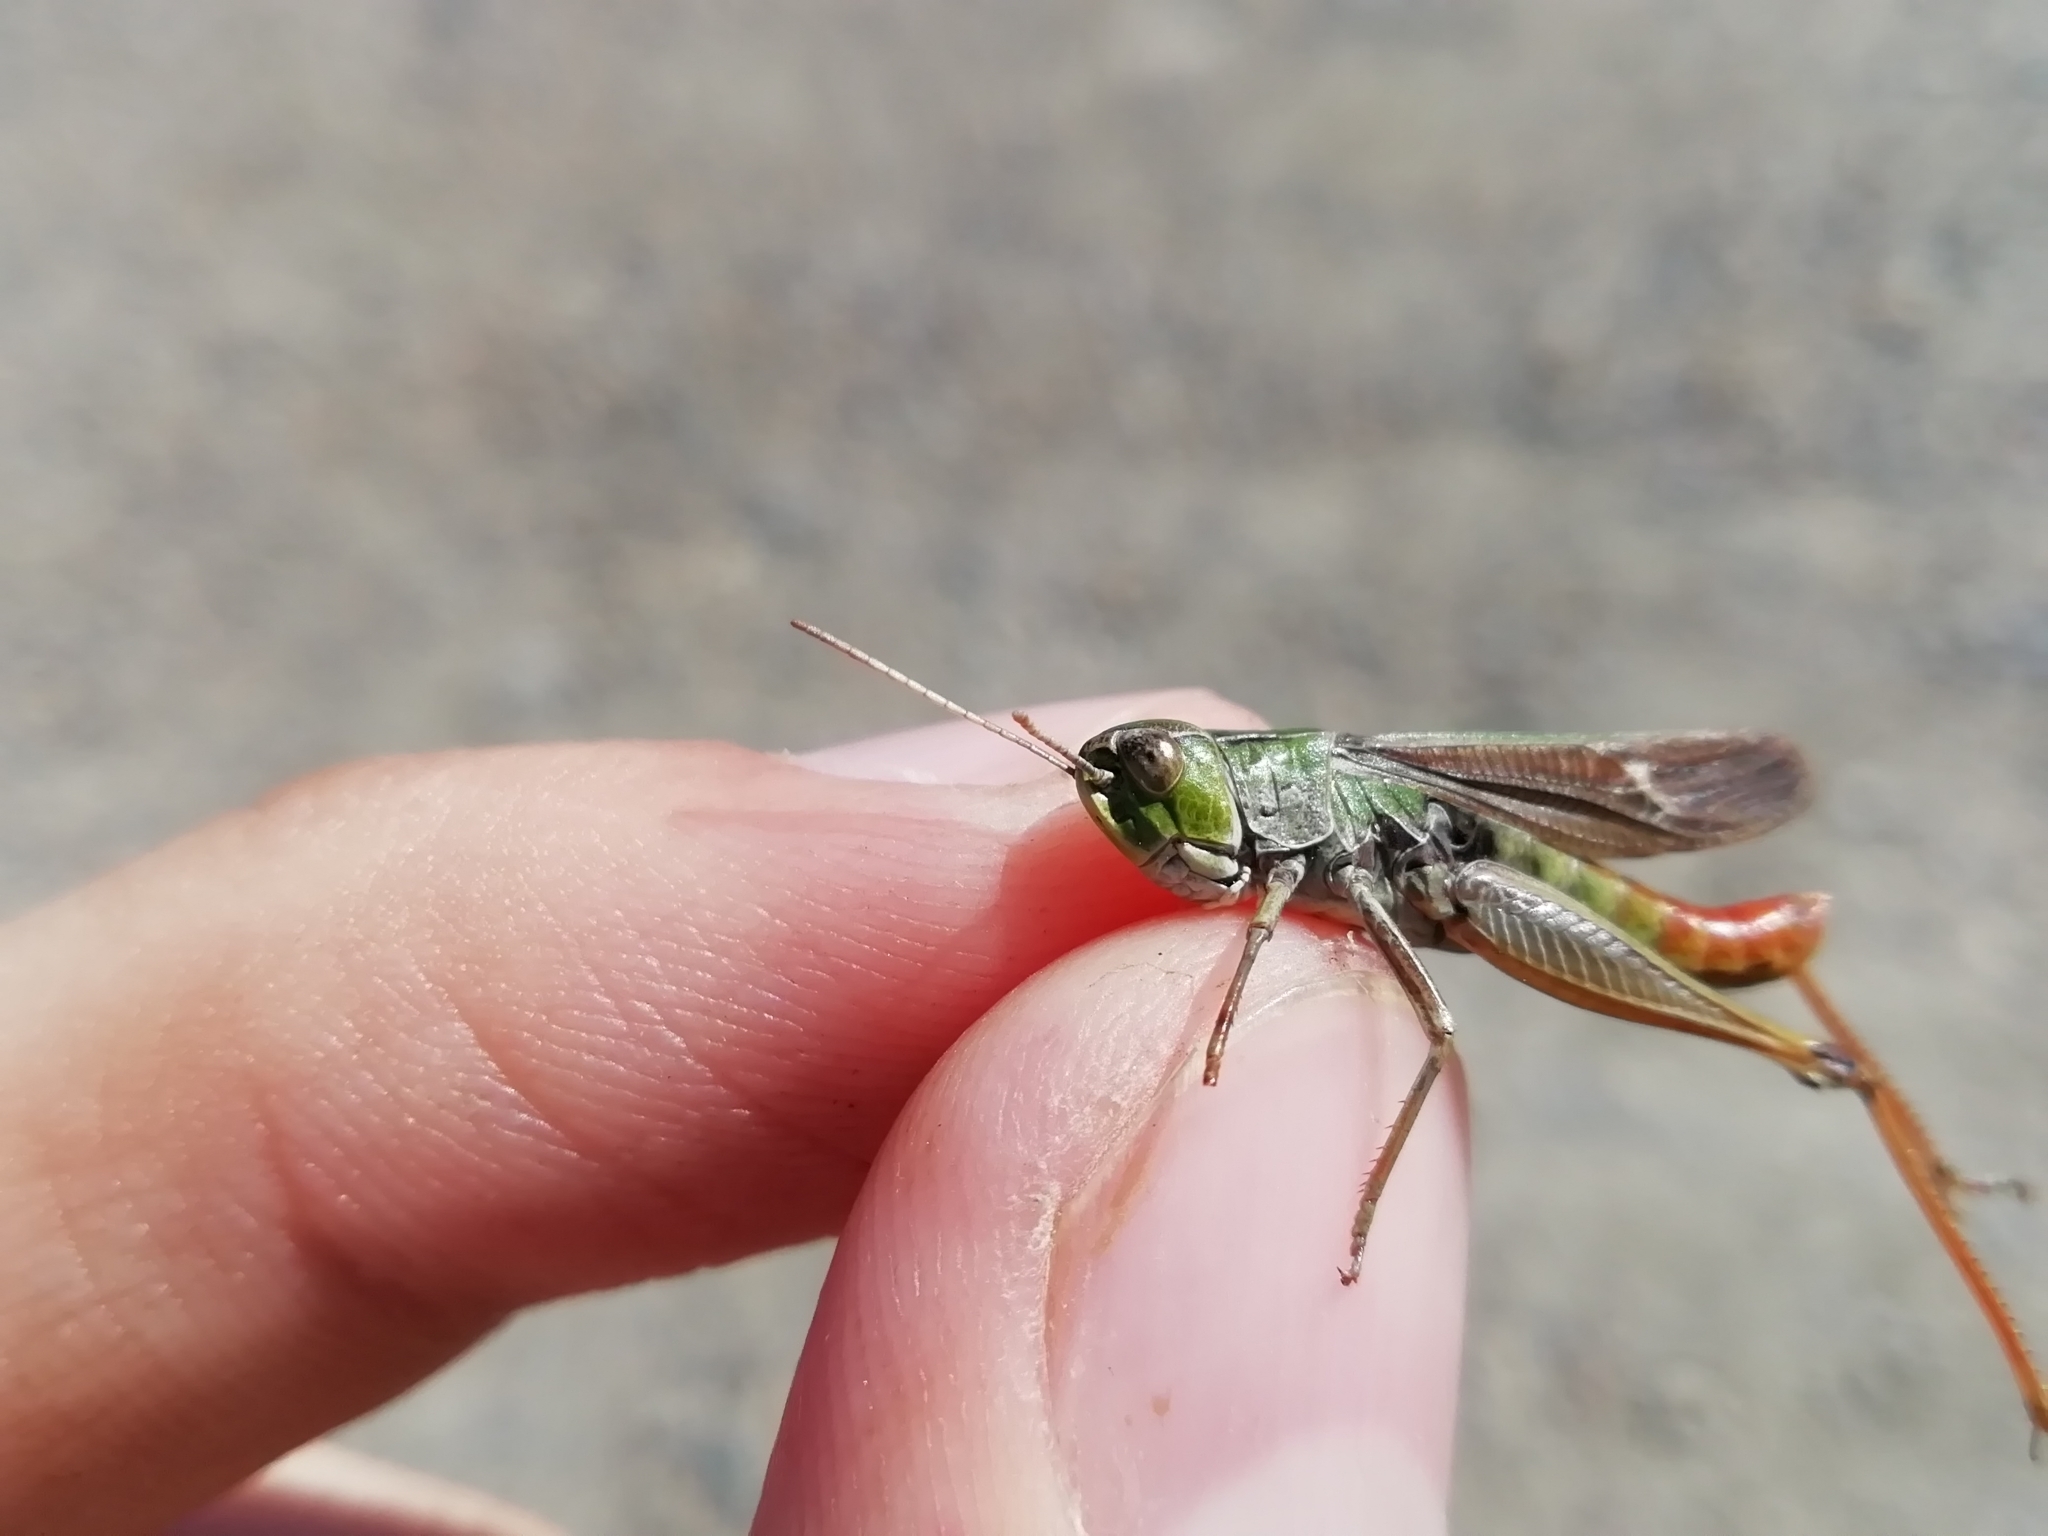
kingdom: Animalia
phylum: Arthropoda
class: Insecta
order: Orthoptera
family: Acrididae
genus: Stenobothrus
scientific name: Stenobothrus lineatus
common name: Stripe-winged grasshopper
